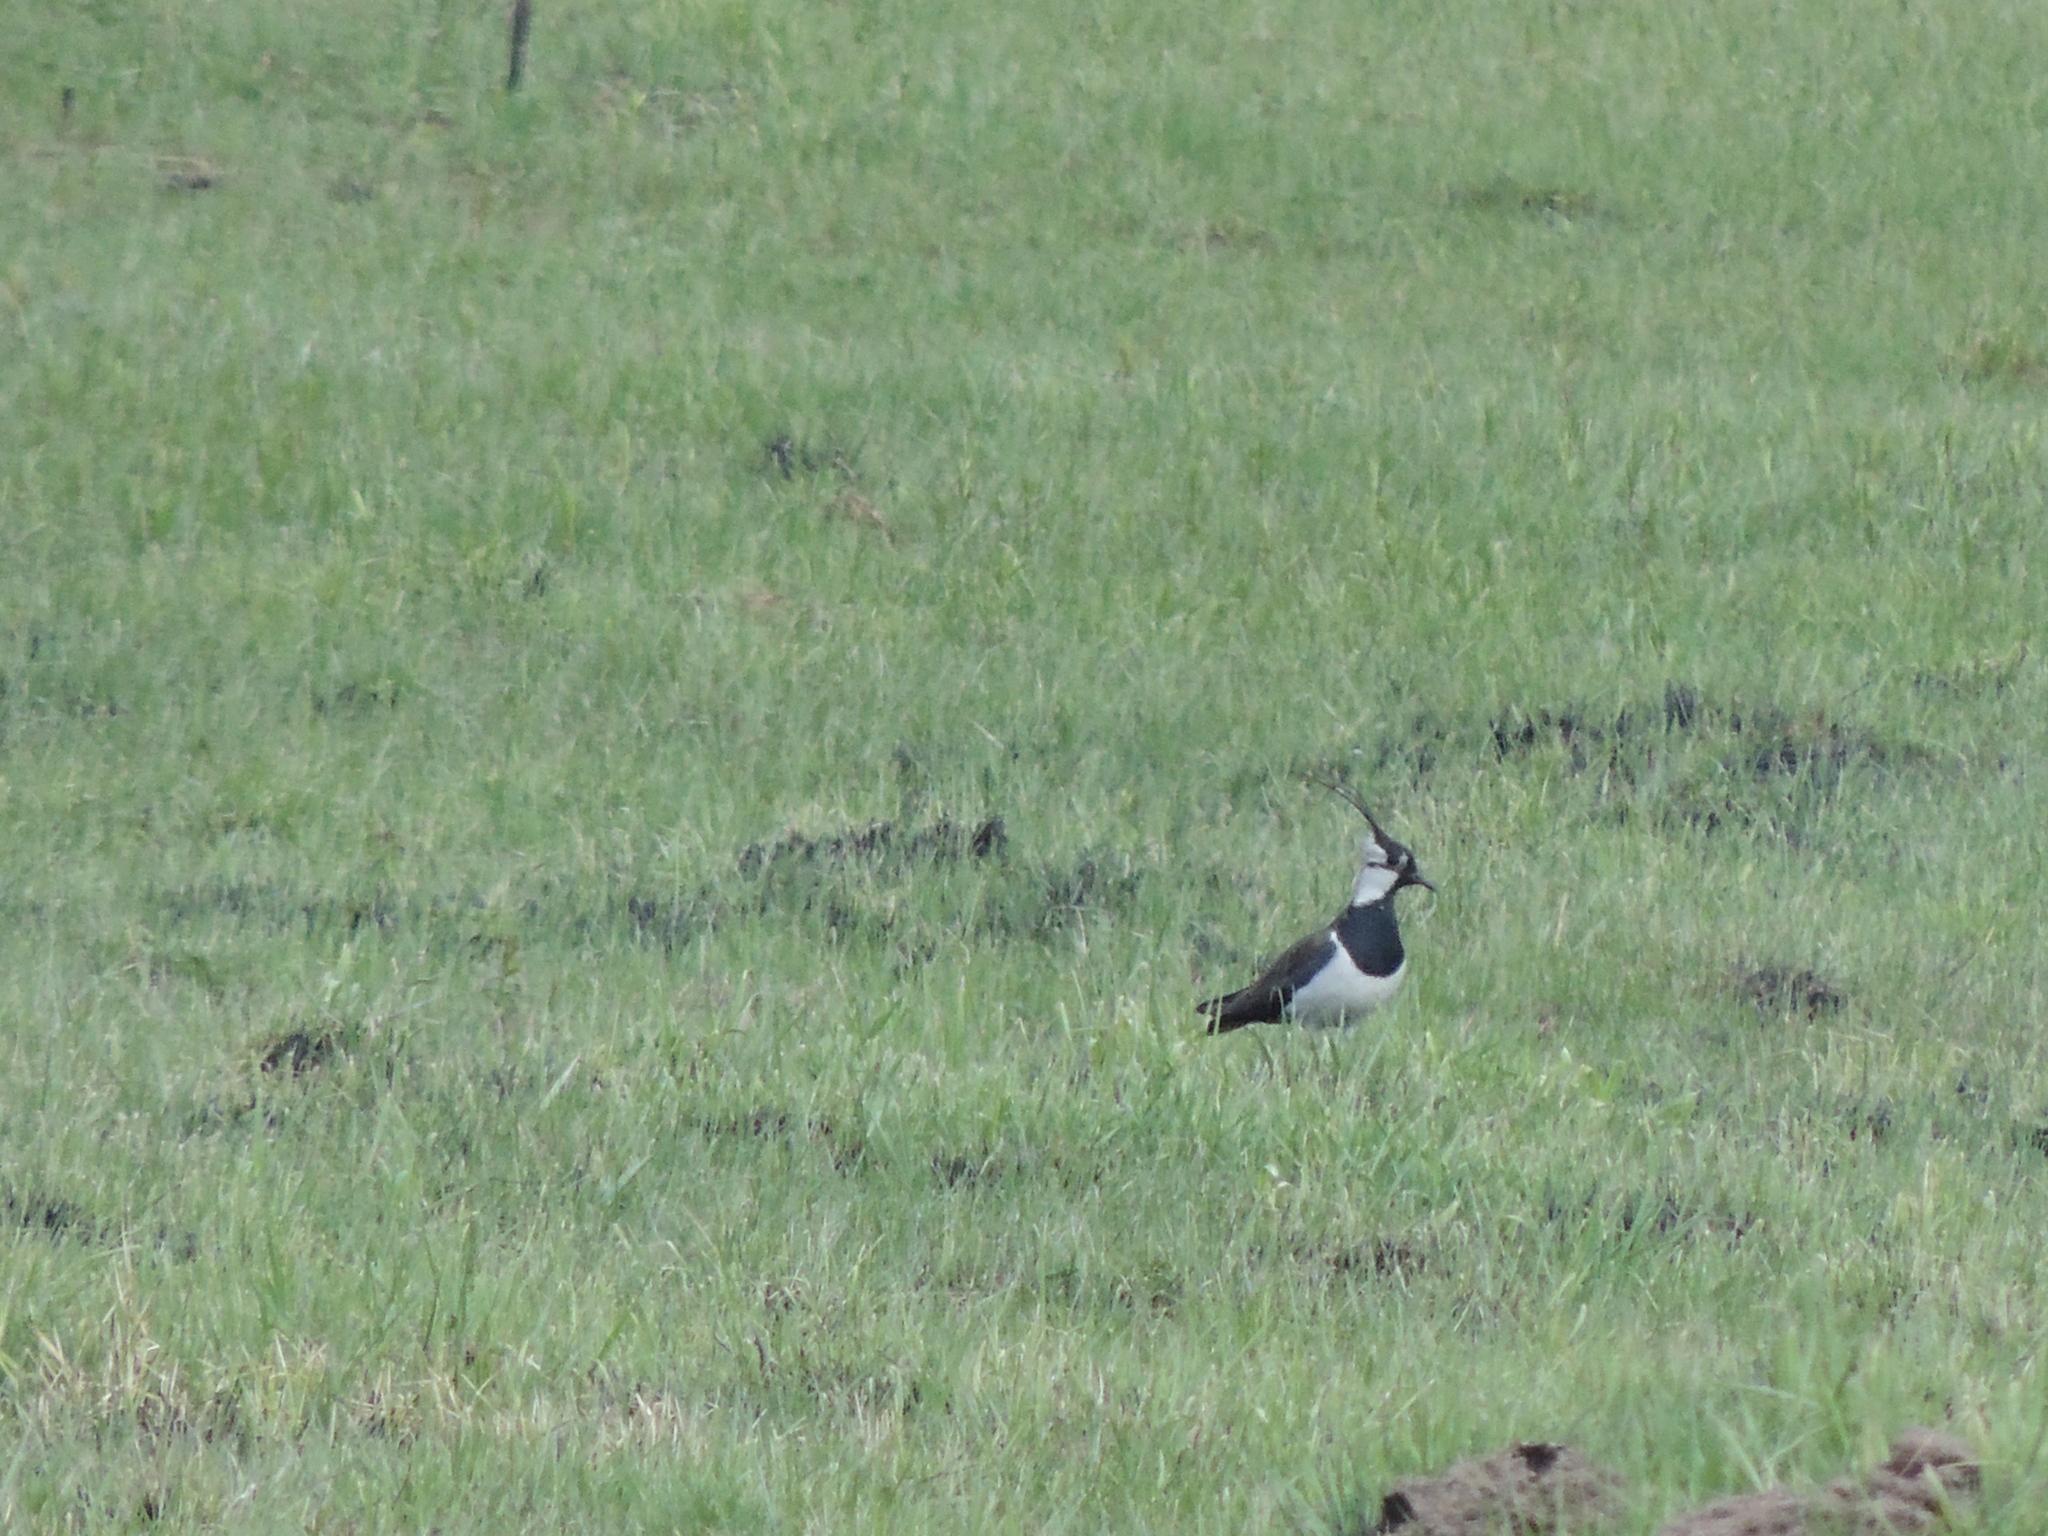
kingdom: Animalia
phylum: Chordata
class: Aves
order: Charadriiformes
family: Charadriidae
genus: Vanellus
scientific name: Vanellus vanellus
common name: Northern lapwing
